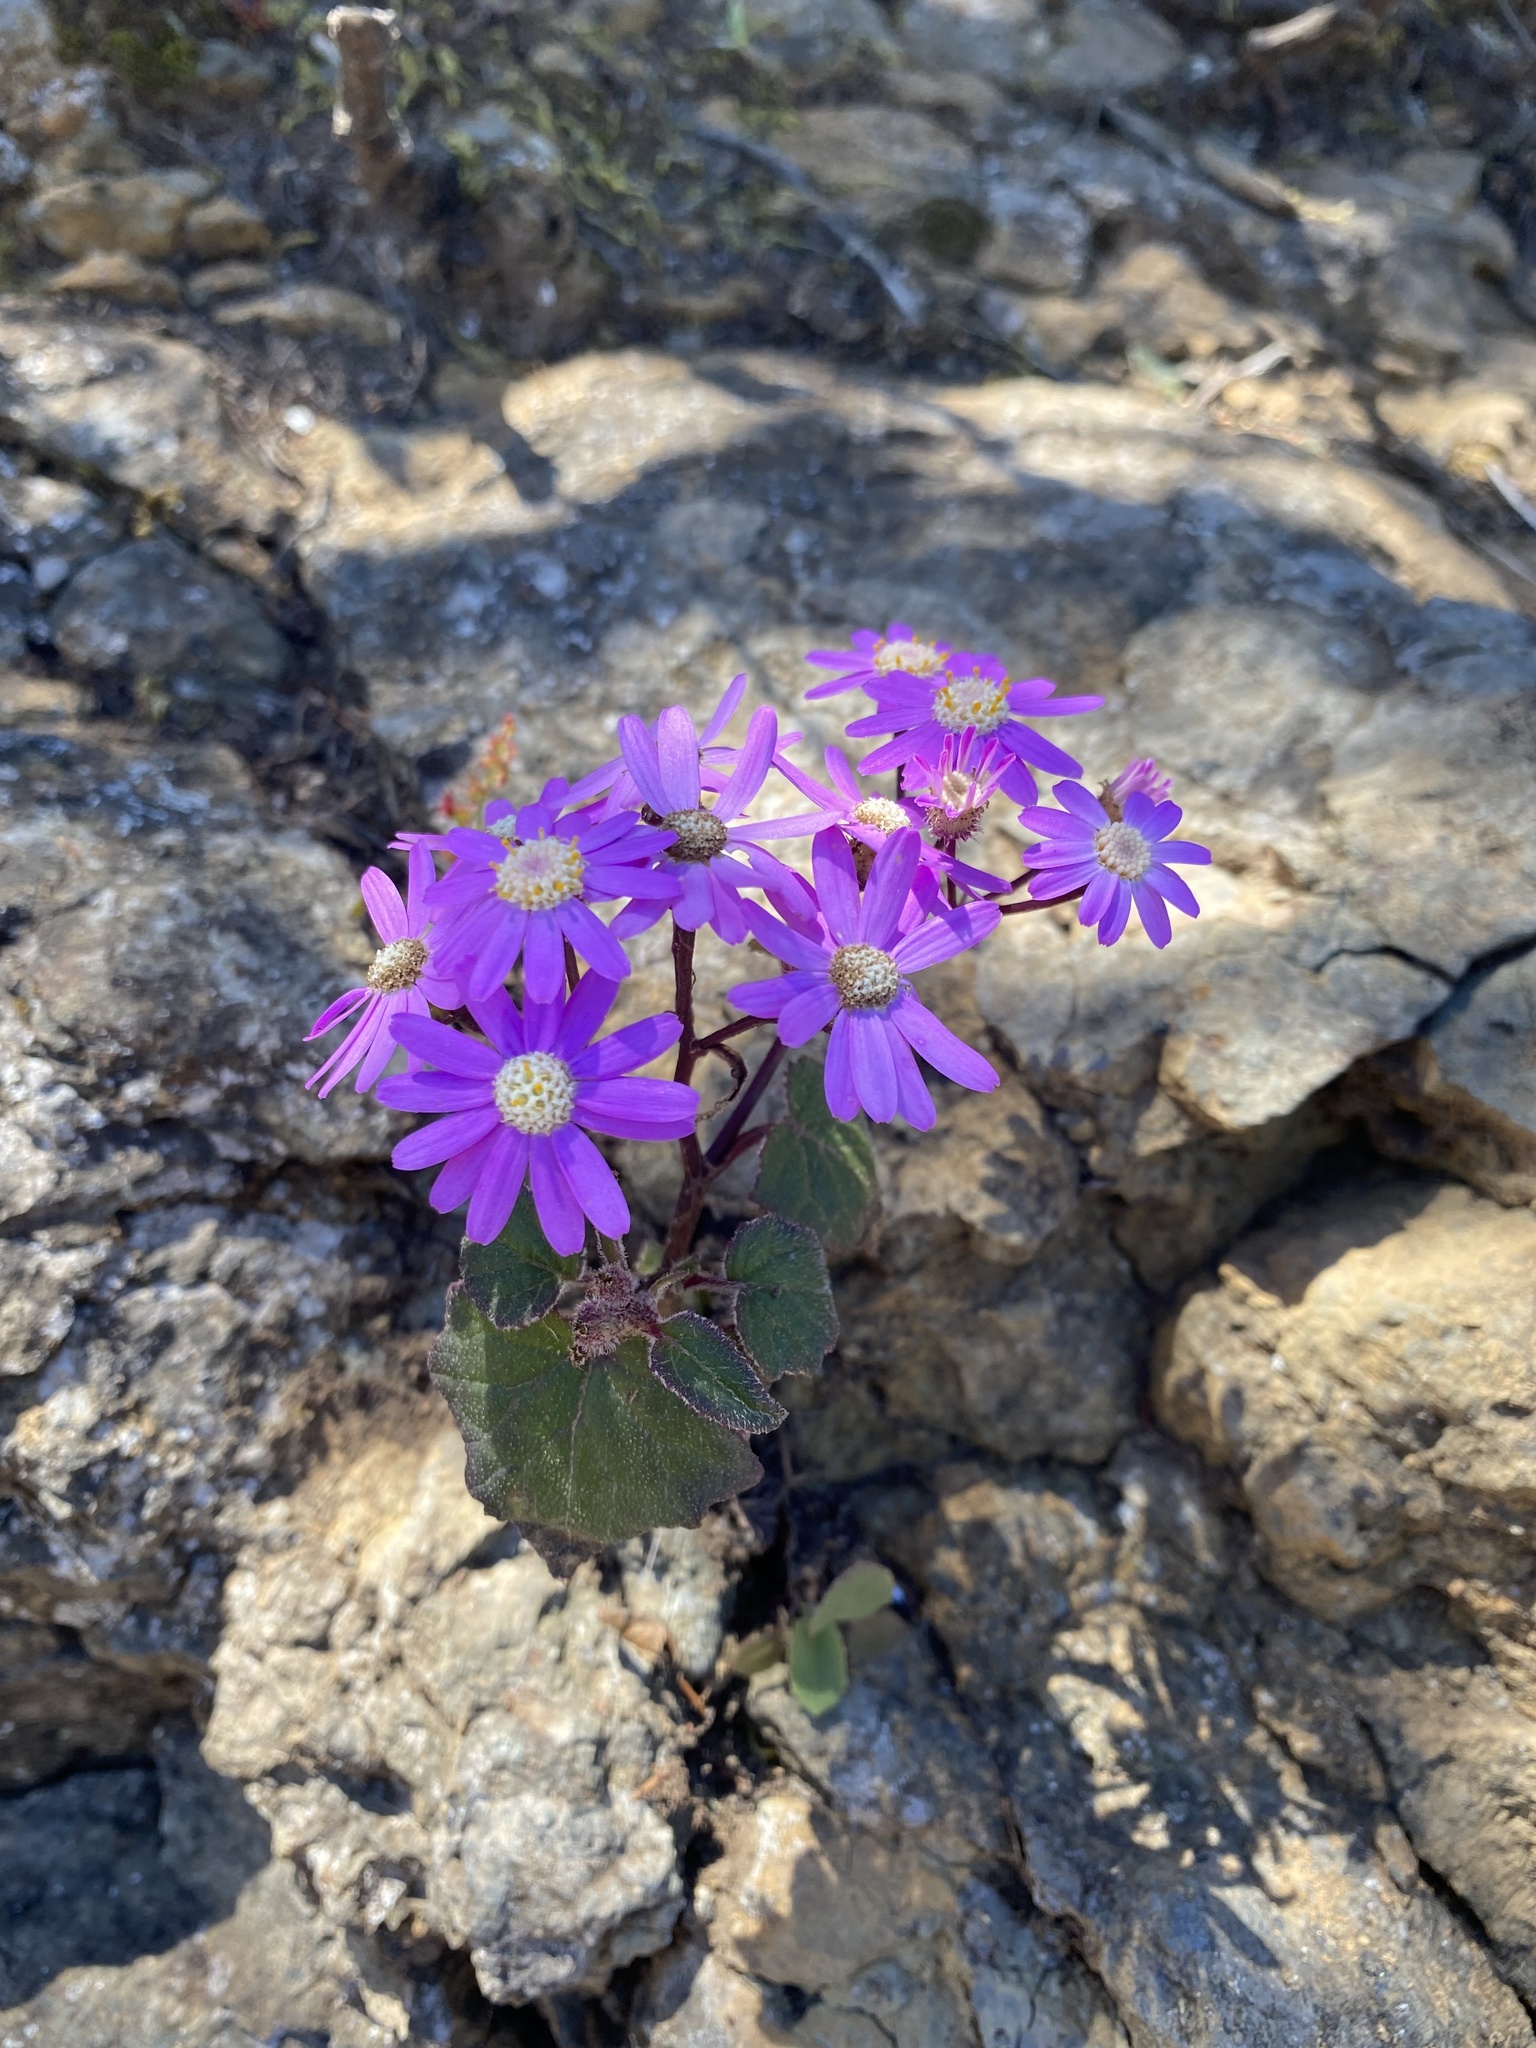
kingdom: Plantae
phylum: Tracheophyta
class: Magnoliopsida
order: Asterales
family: Asteraceae
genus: Pericallis
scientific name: Pericallis echinata
